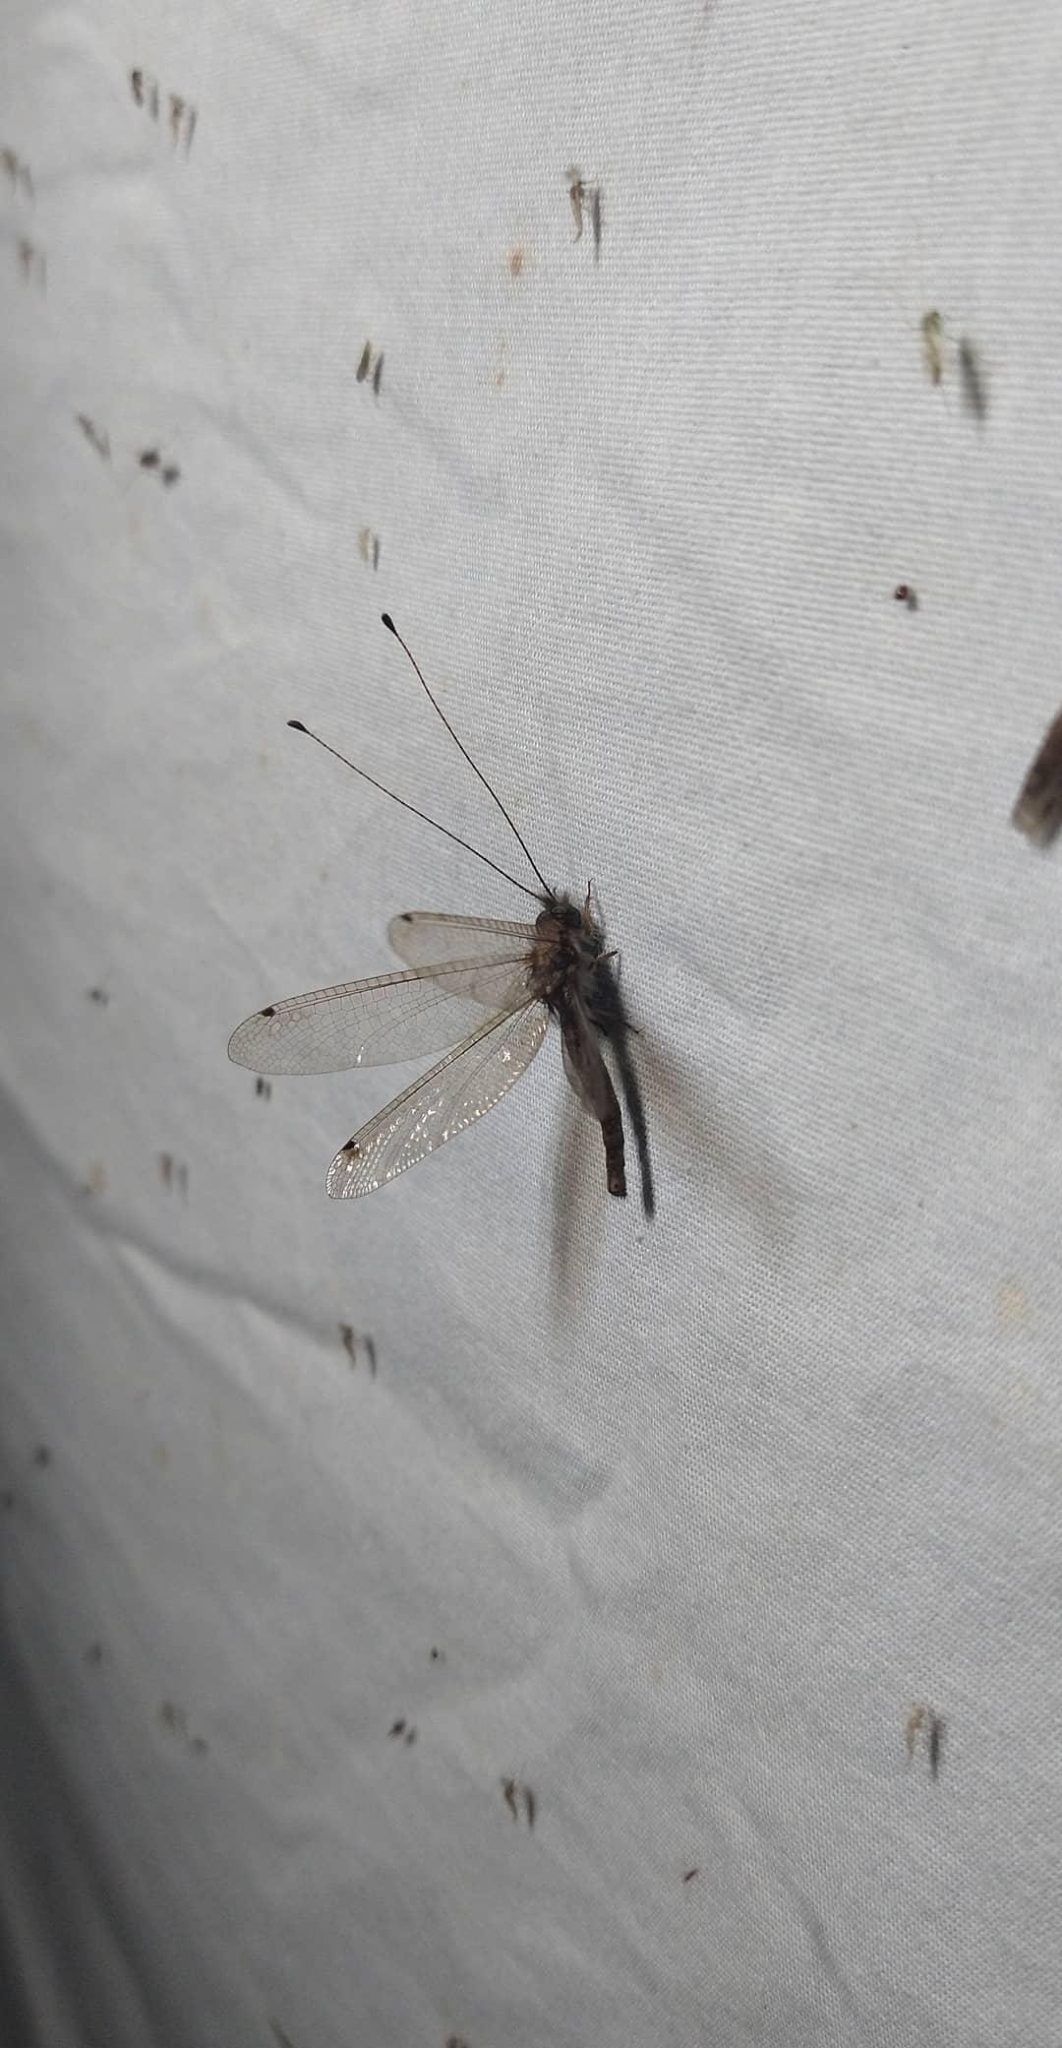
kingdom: Animalia
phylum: Arthropoda
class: Insecta
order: Neuroptera
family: Ascalaphidae
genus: Ululodes
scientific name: Ululodes macleayanus
